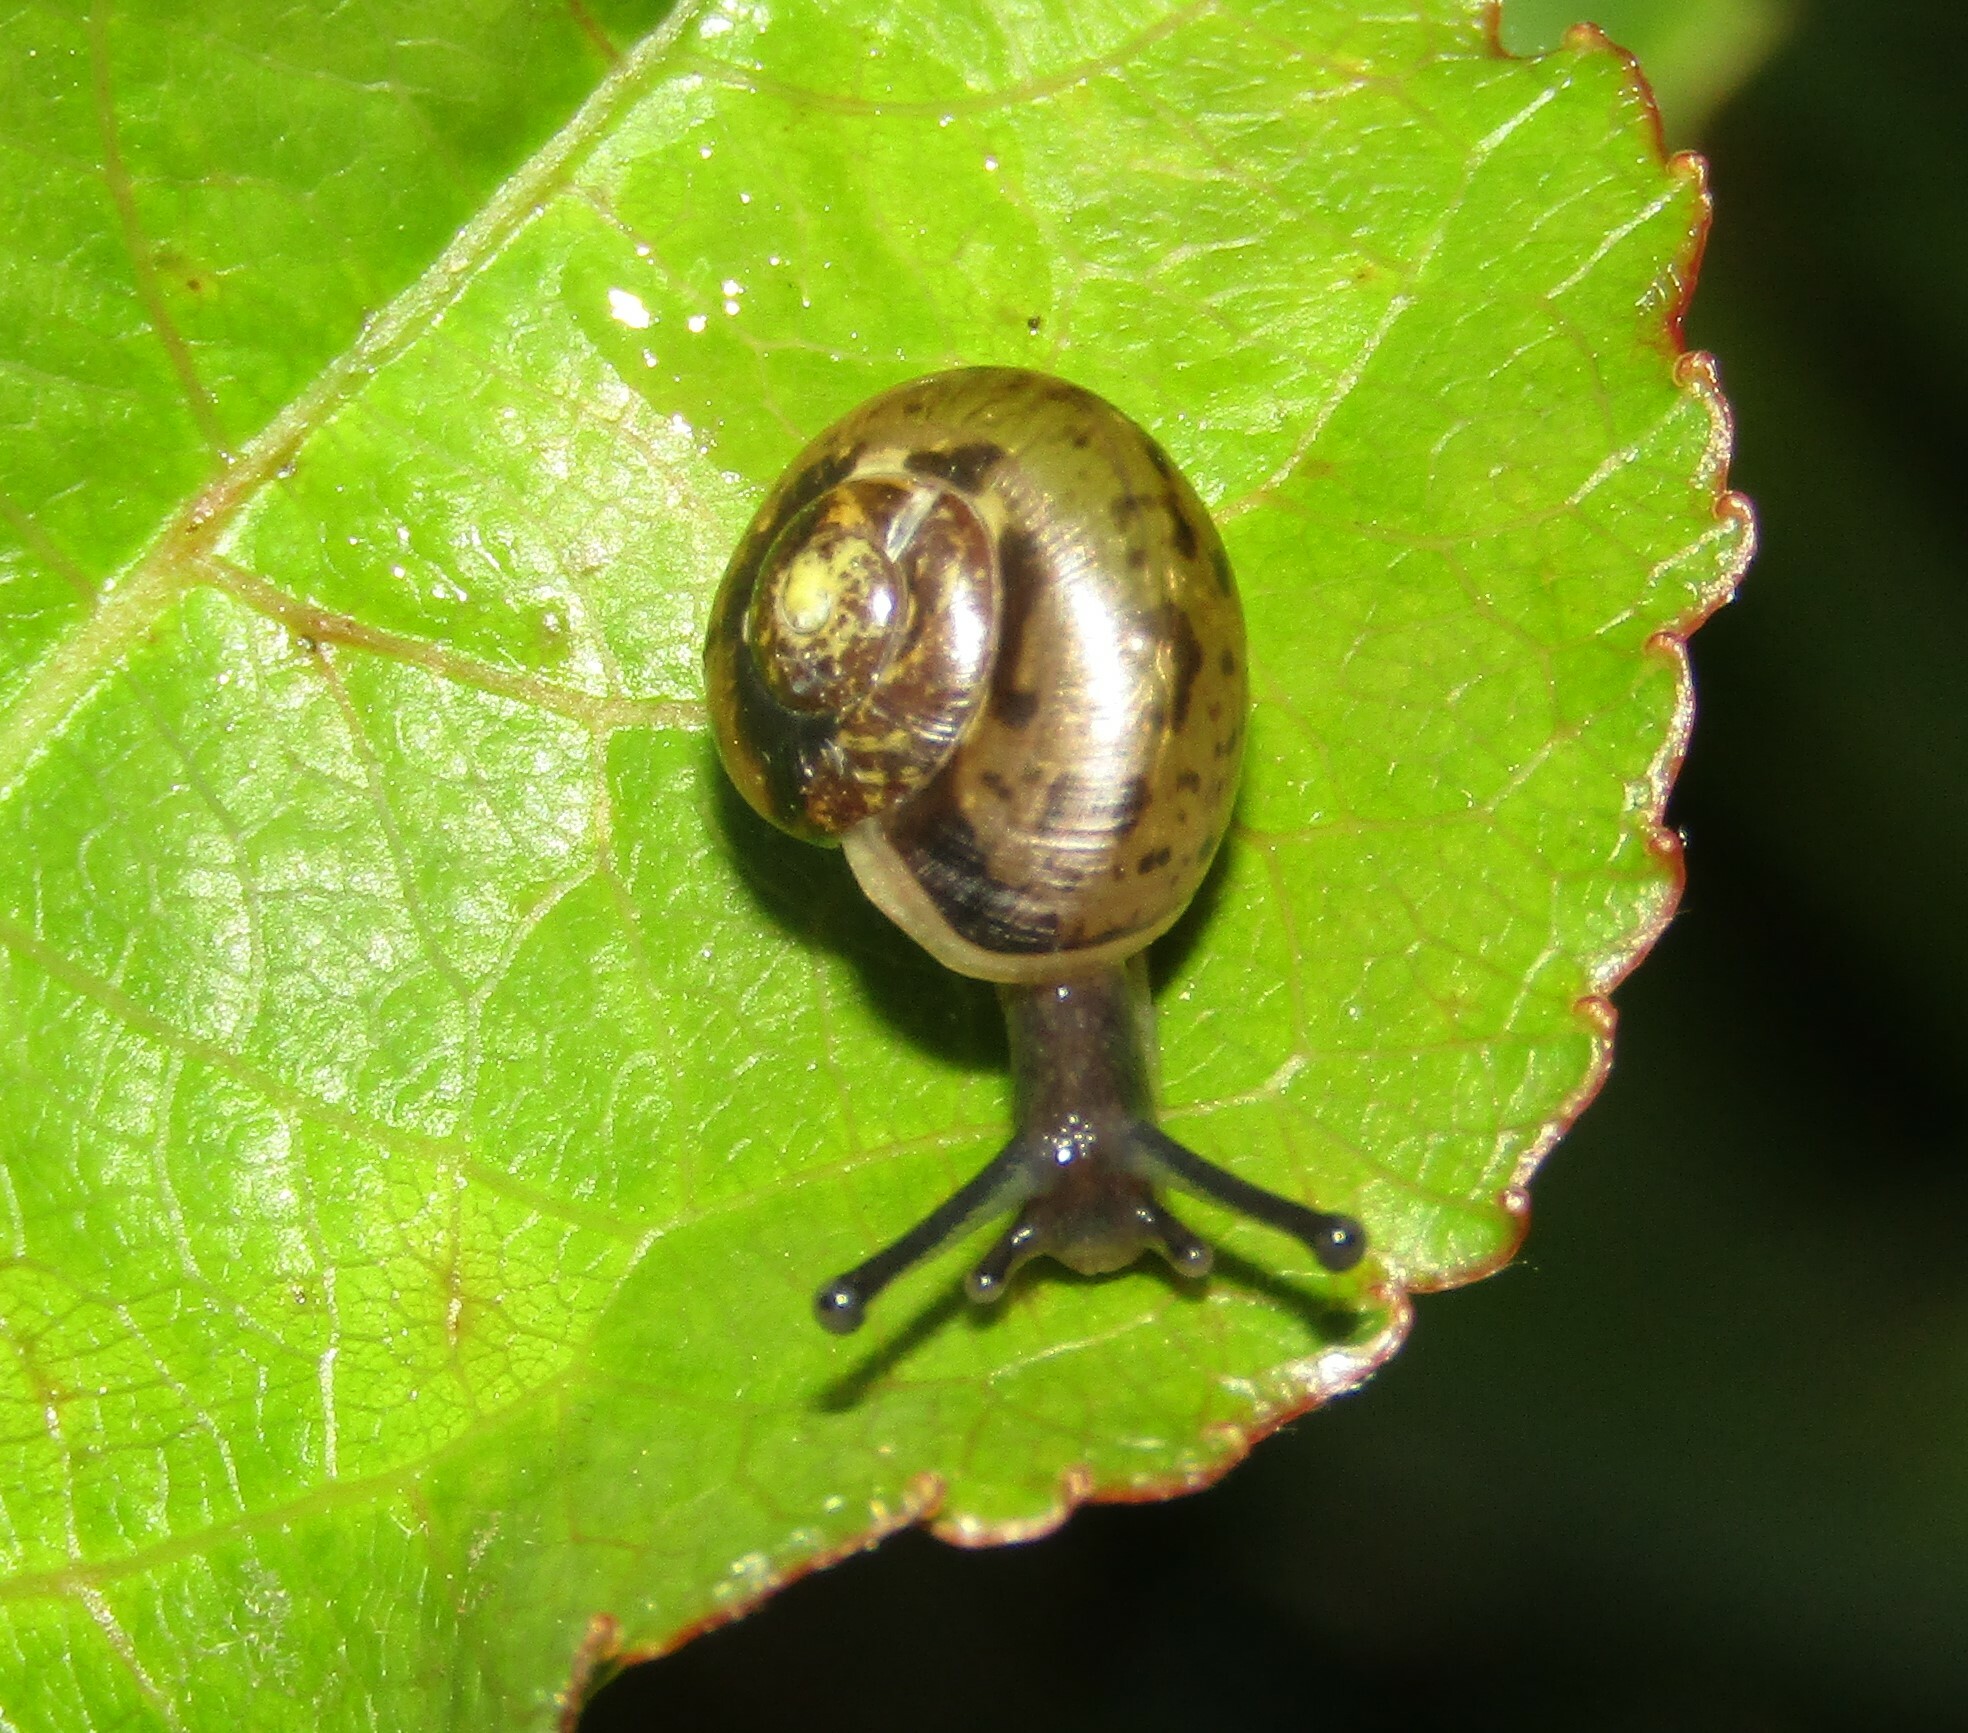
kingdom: Animalia
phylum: Mollusca
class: Gastropoda
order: Stylommatophora
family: Camaenidae
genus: Fruticicola
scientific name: Fruticicola fruticum
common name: Bush snail
